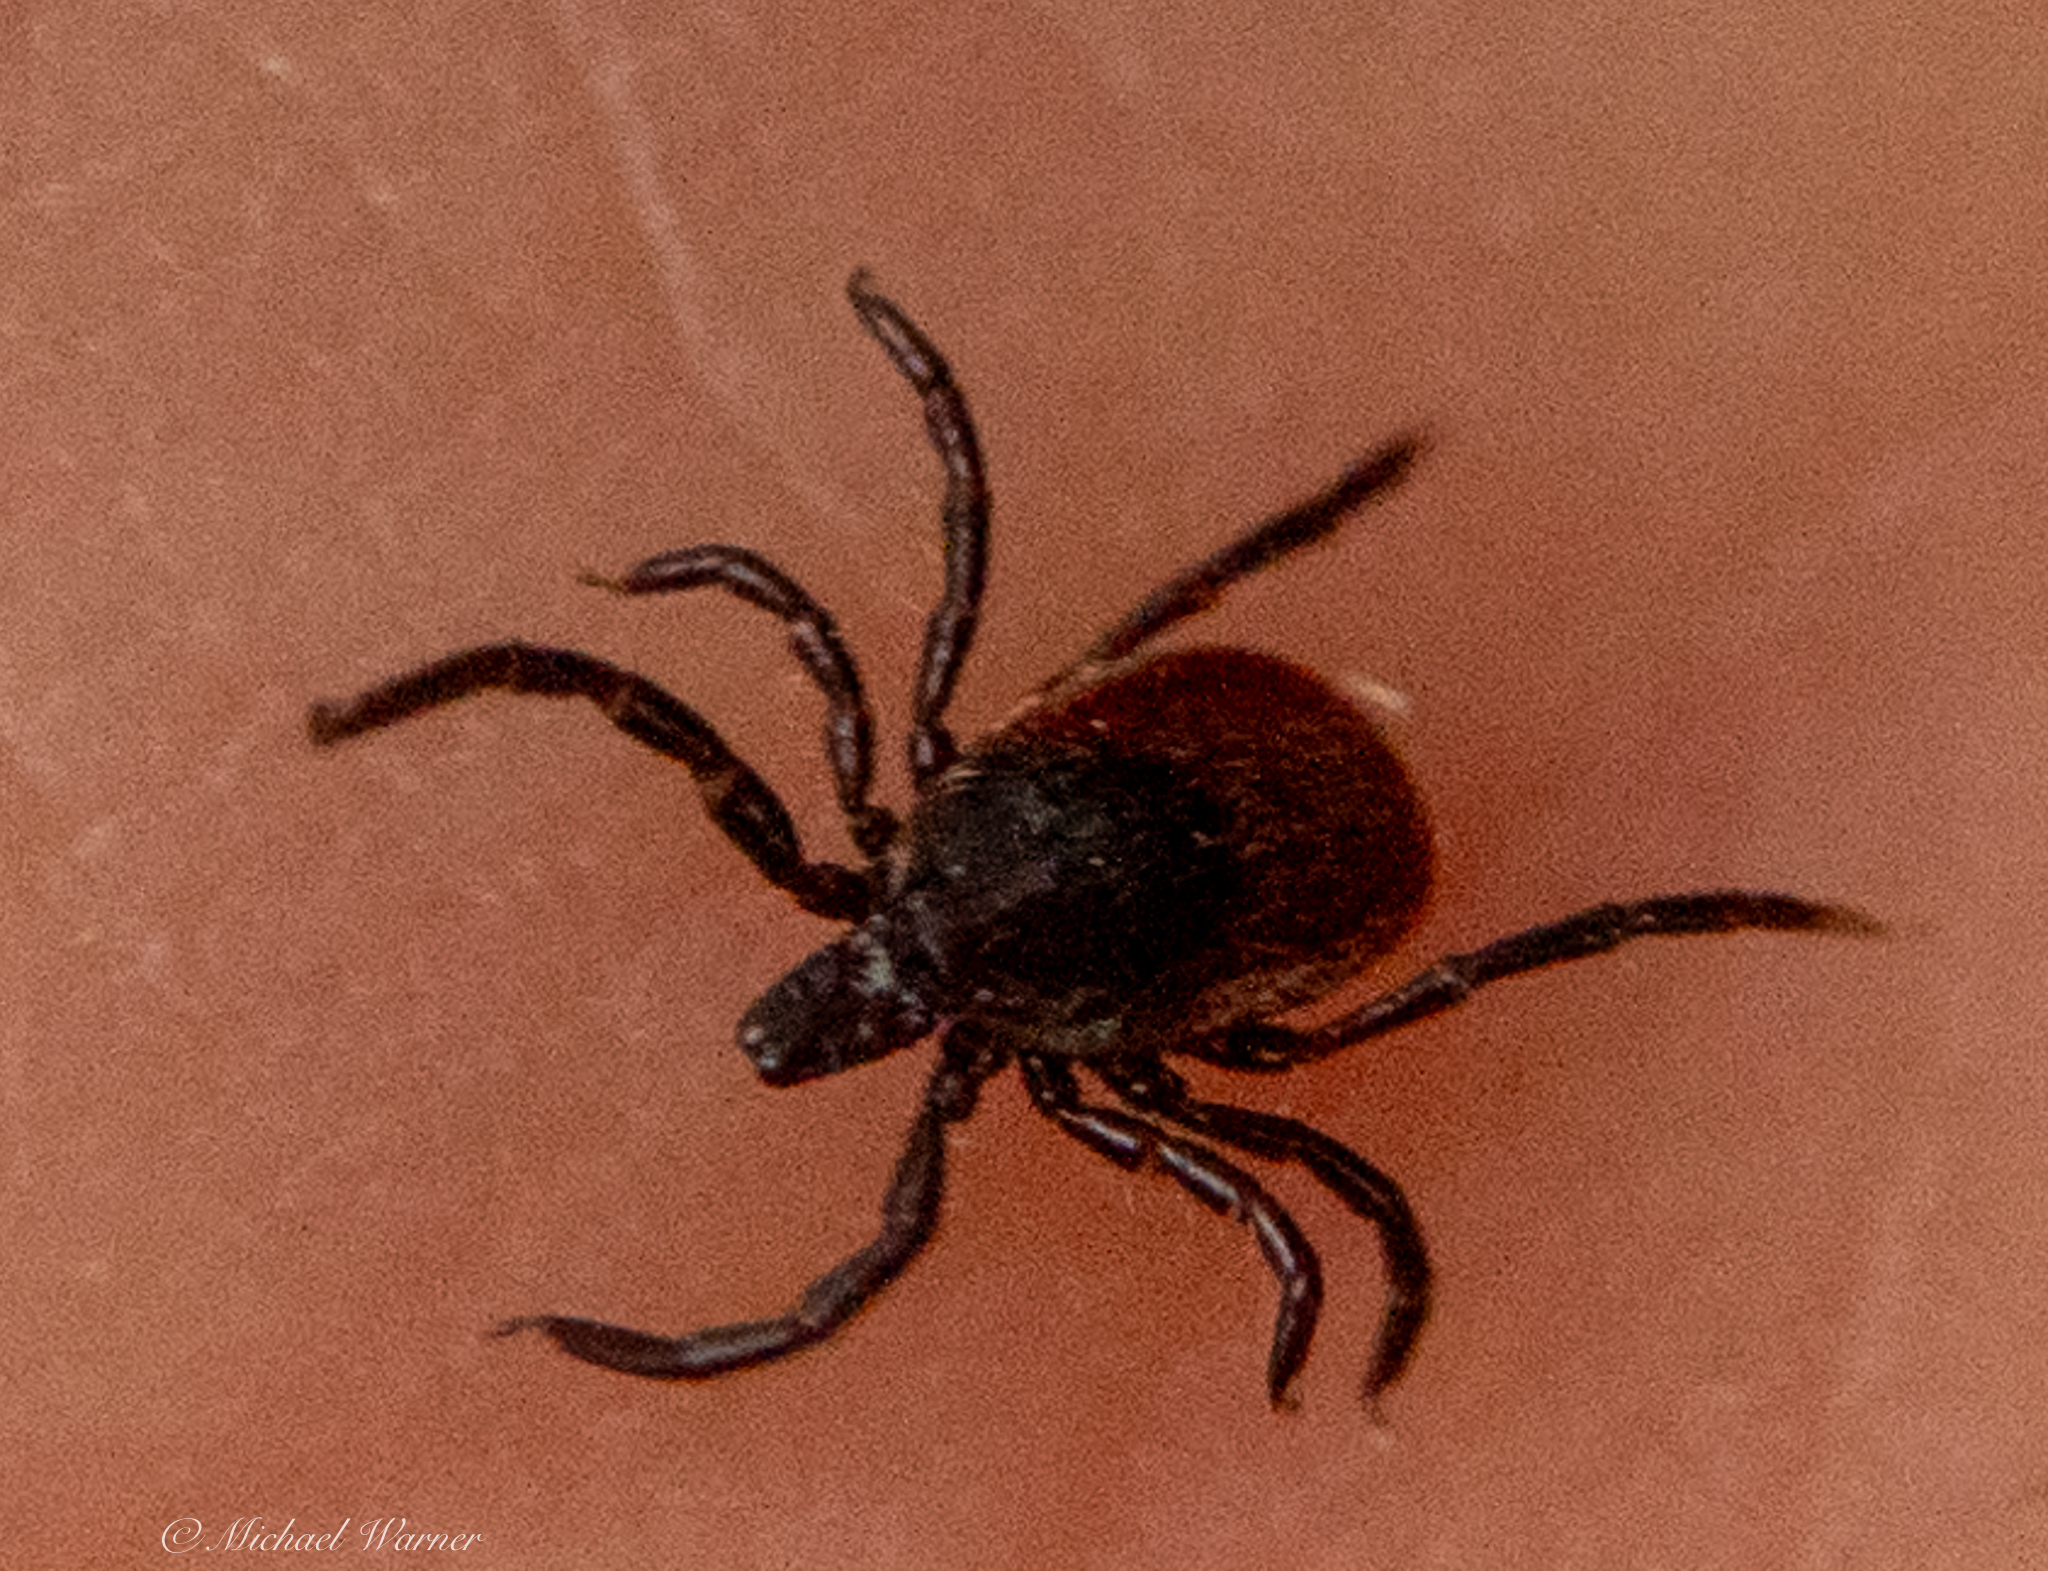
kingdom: Animalia
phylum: Arthropoda
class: Arachnida
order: Ixodida
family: Ixodidae
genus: Ixodes
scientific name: Ixodes pacificus
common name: California black-legged tick
